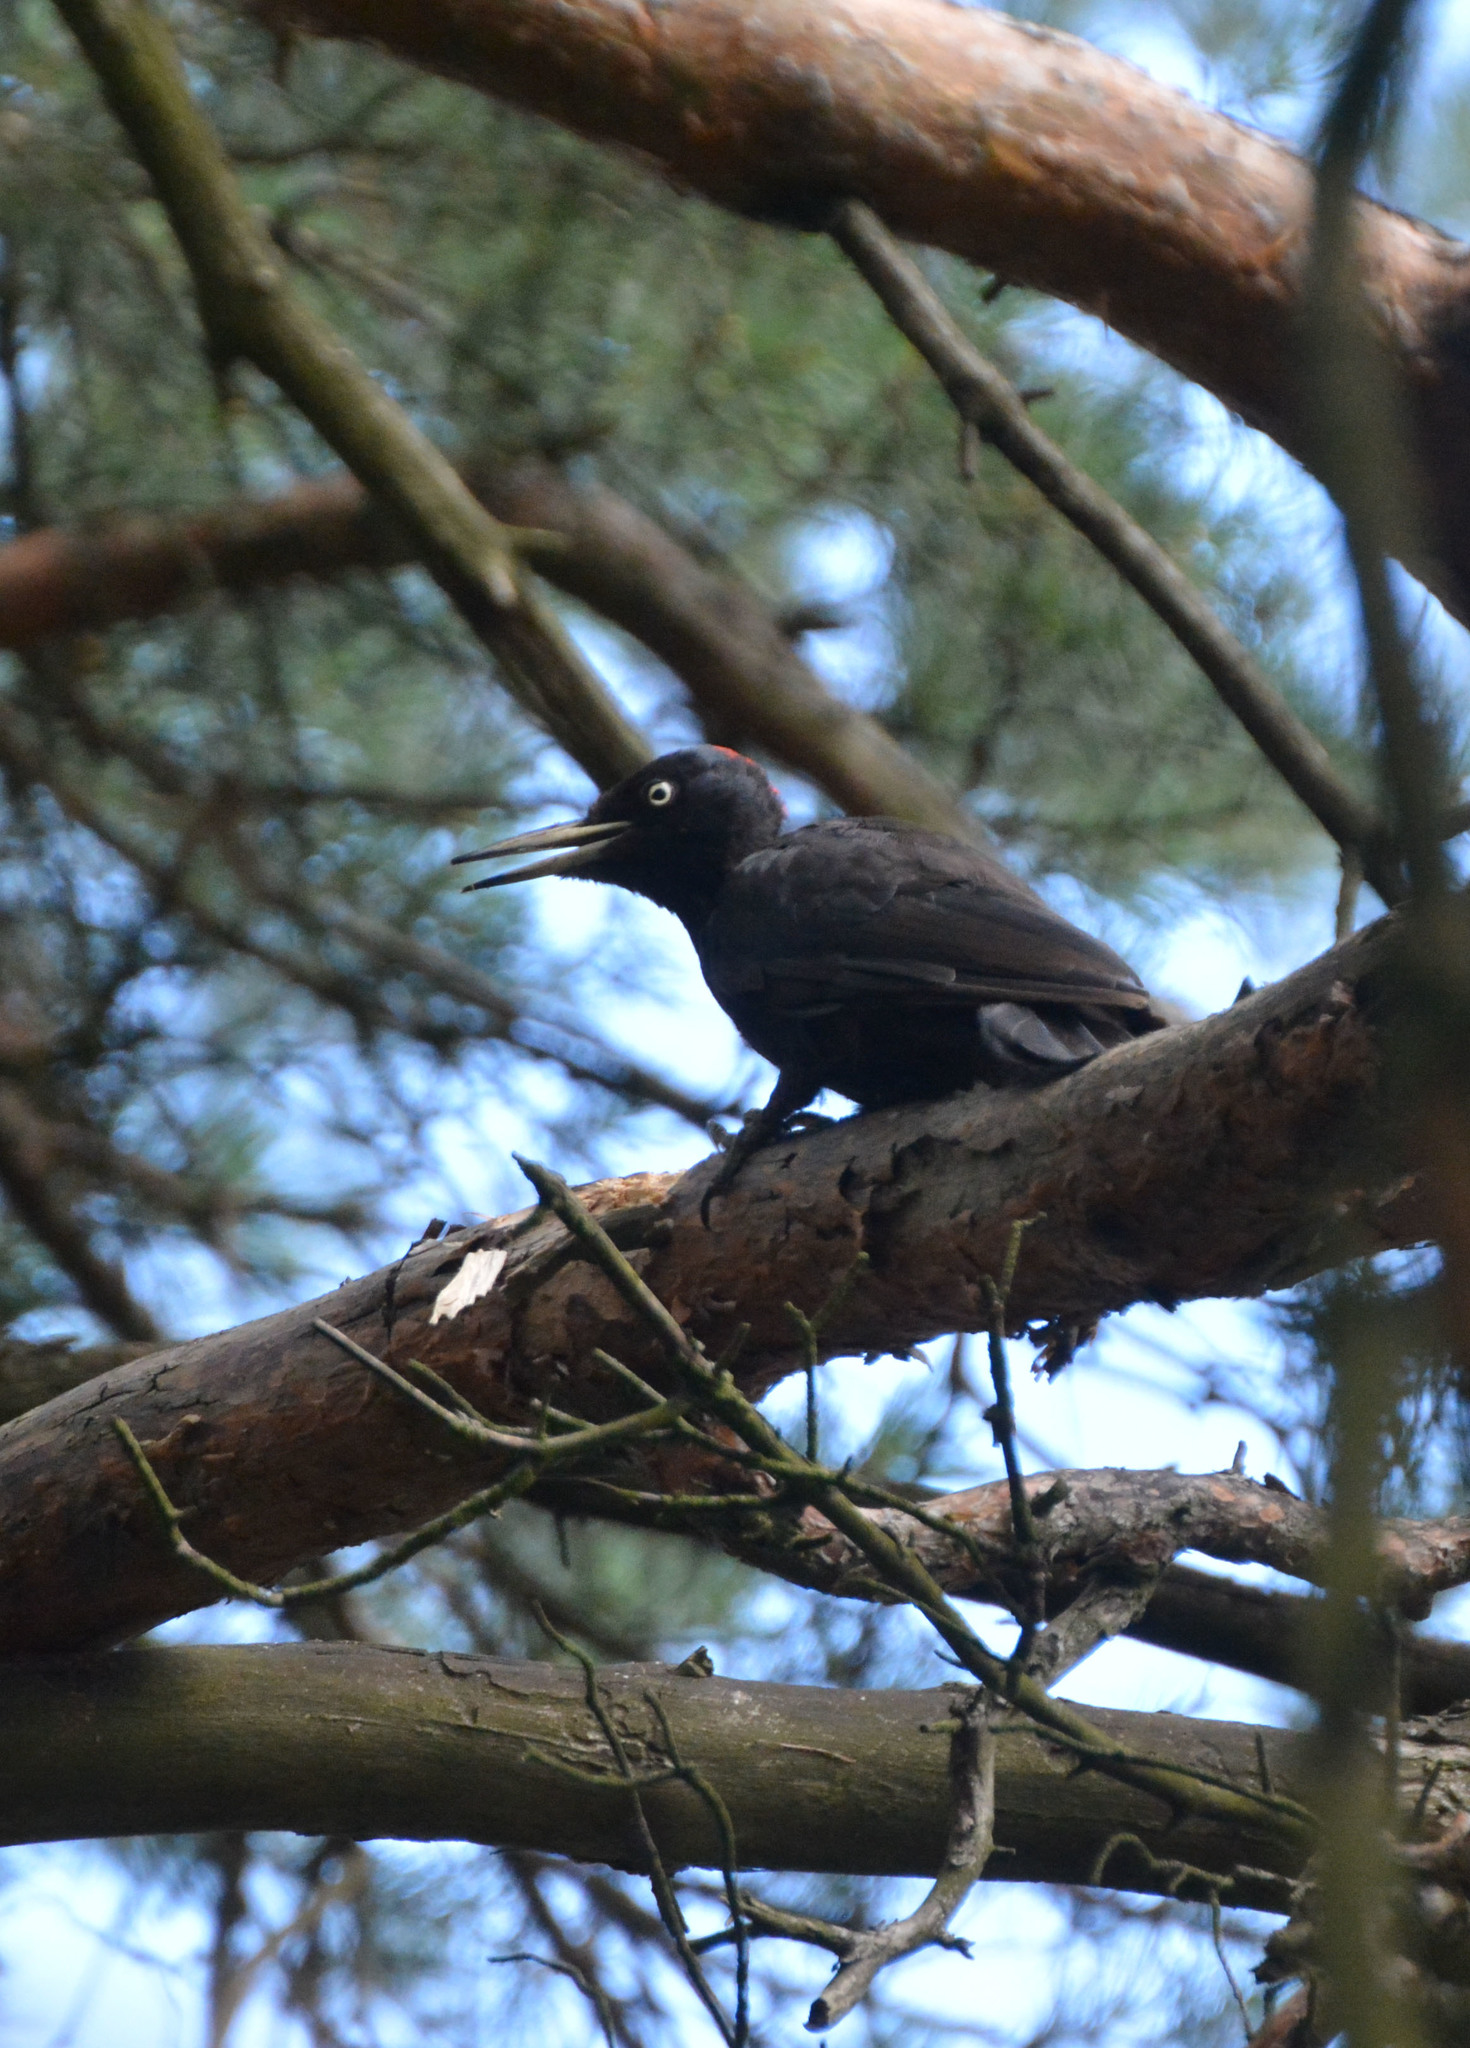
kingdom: Animalia
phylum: Chordata
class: Aves
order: Piciformes
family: Picidae
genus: Dryocopus
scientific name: Dryocopus martius
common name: Black woodpecker
